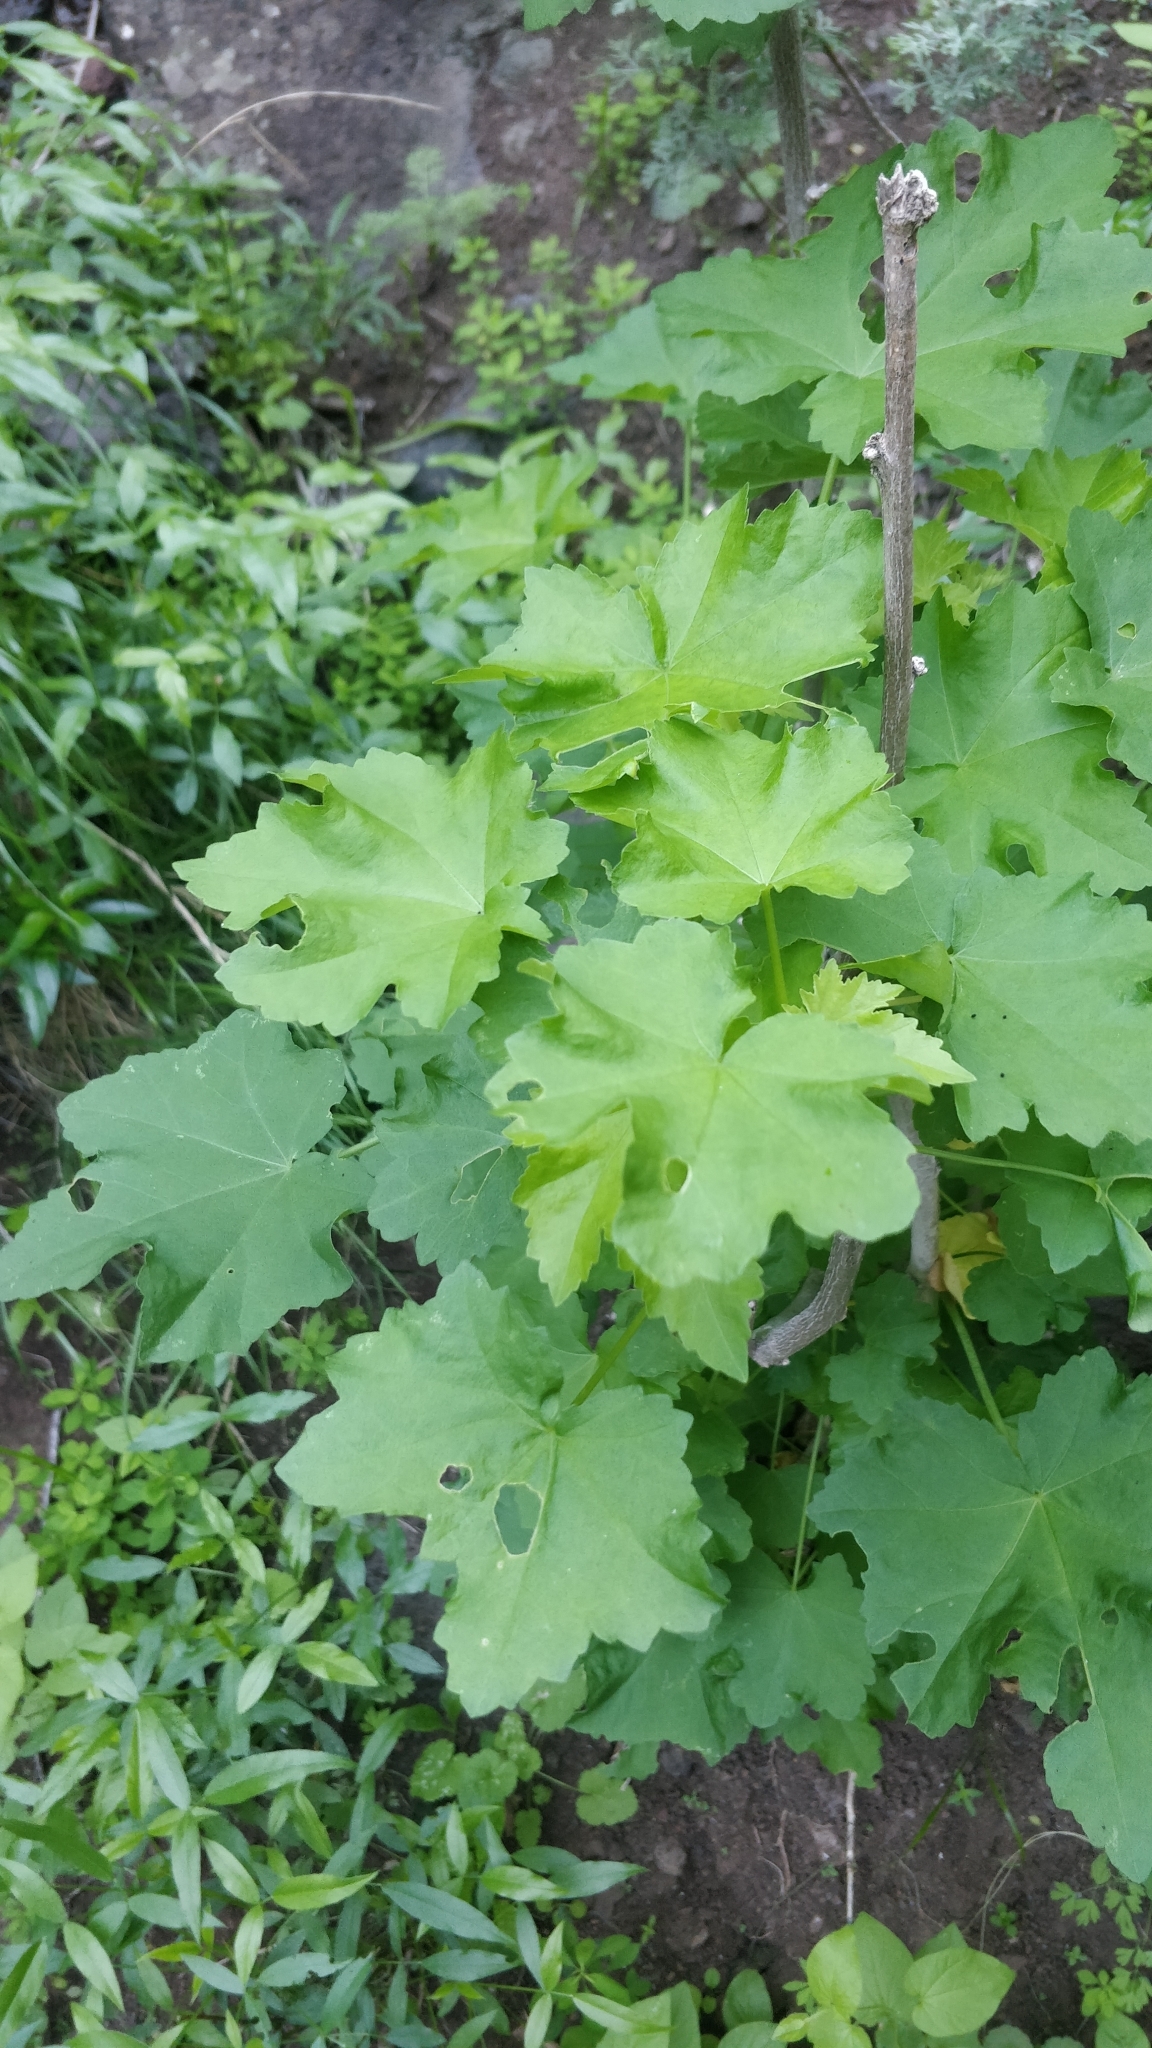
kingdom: Plantae
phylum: Tracheophyta
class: Magnoliopsida
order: Malvales
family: Malvaceae
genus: Malva
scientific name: Malva acerifolia
